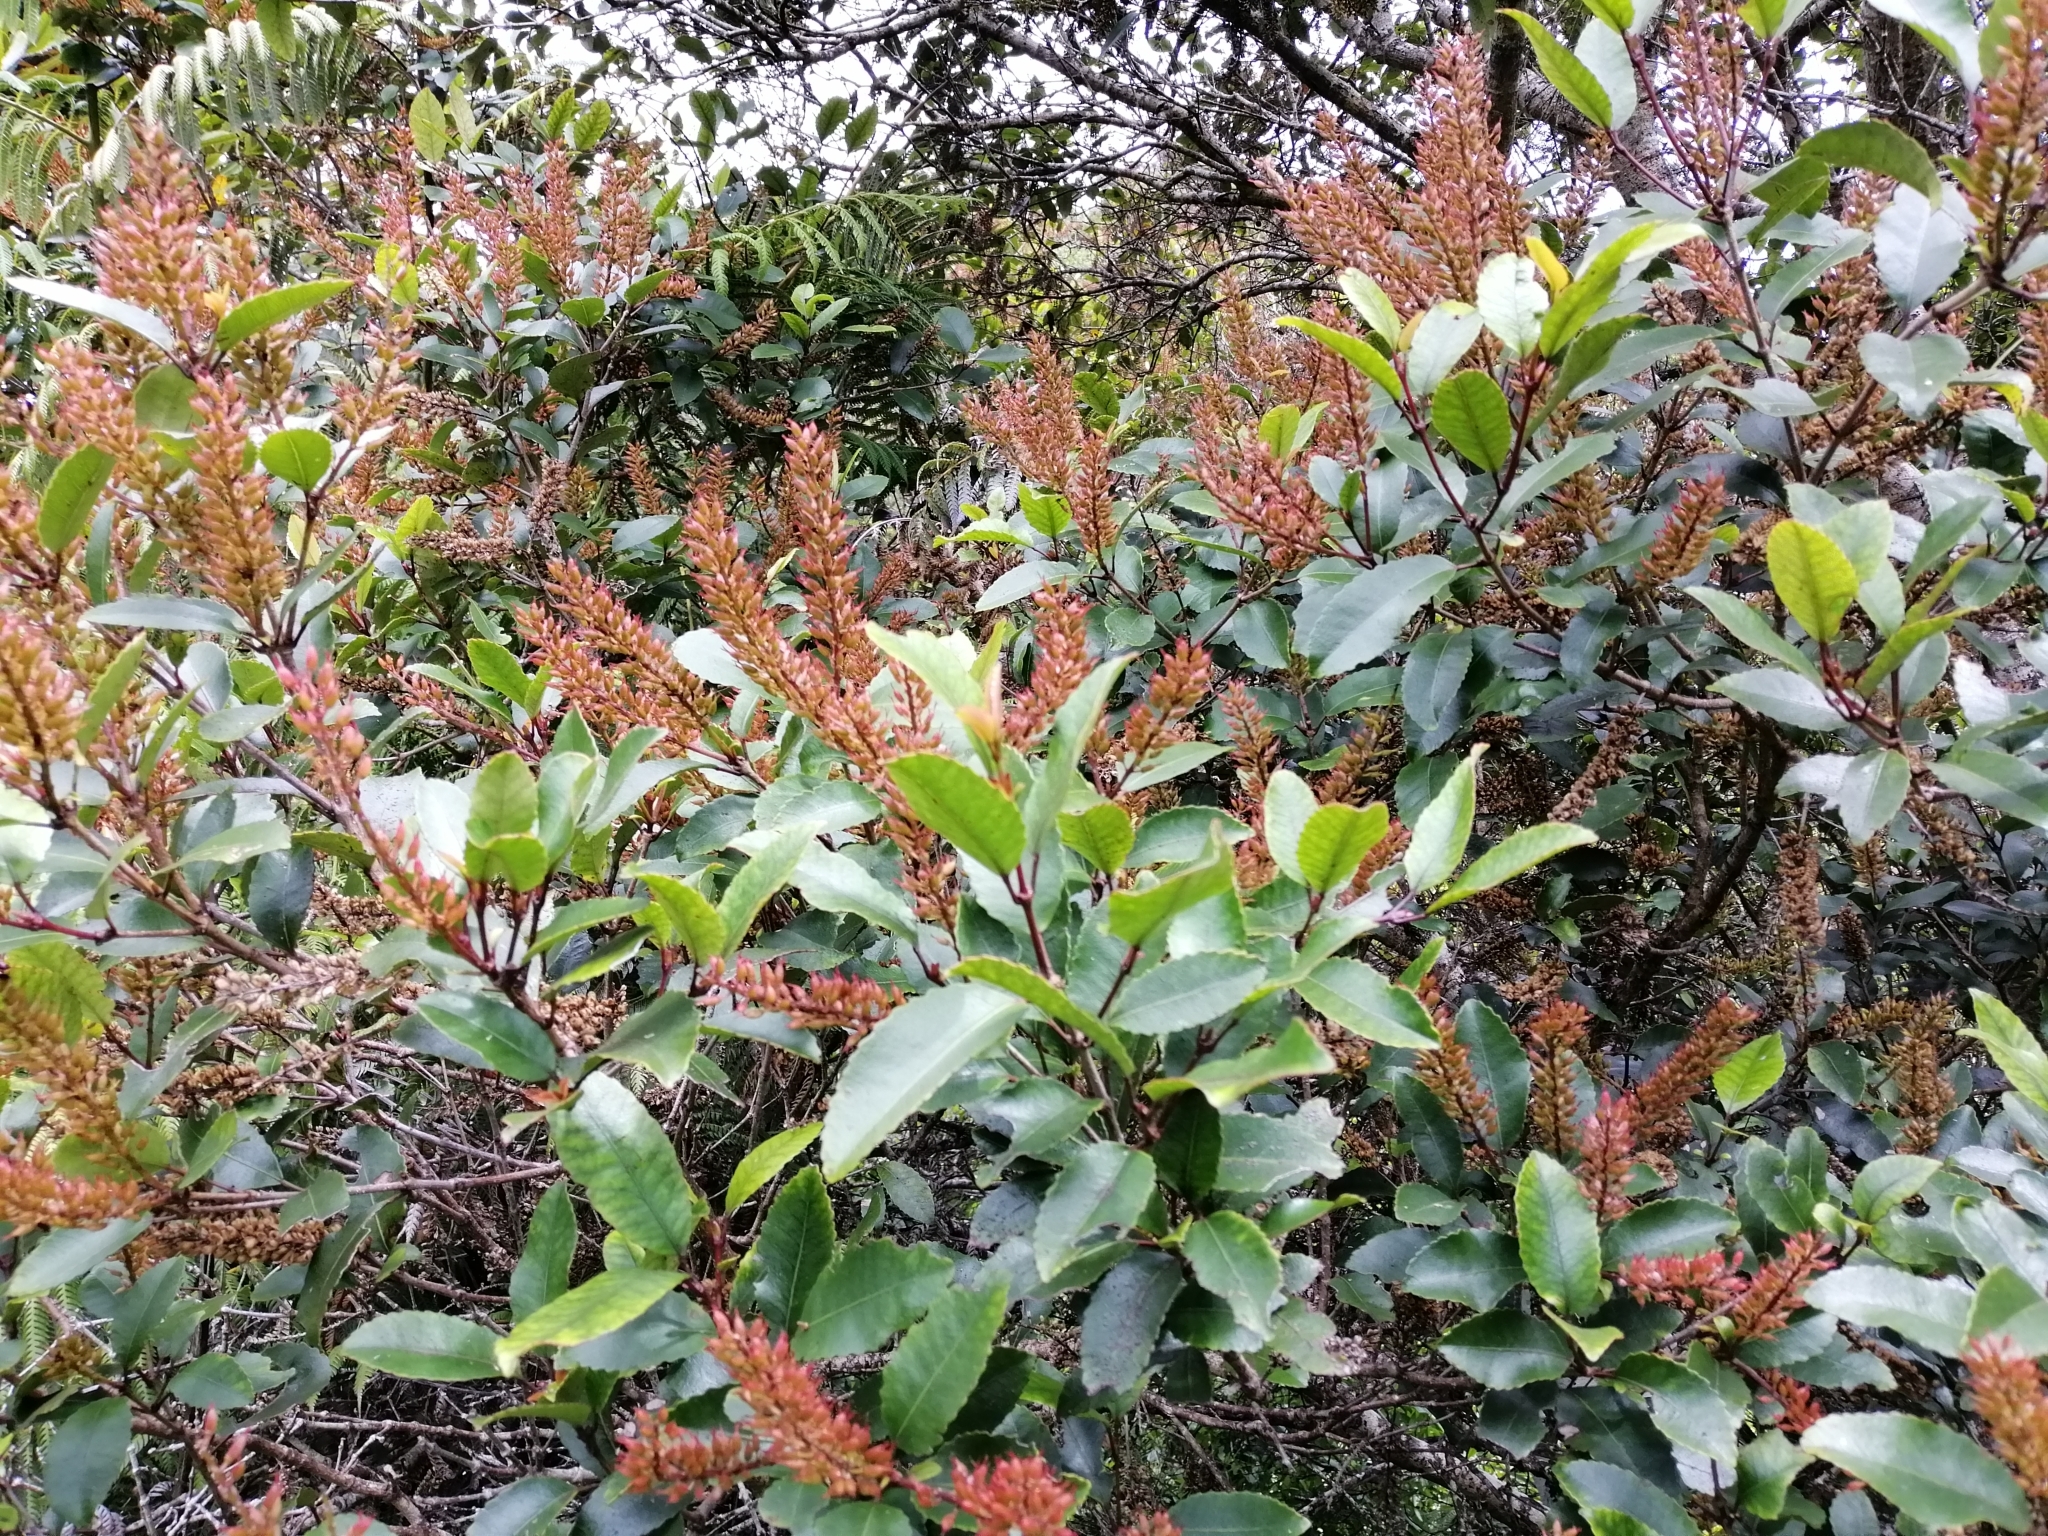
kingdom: Plantae
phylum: Tracheophyta
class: Magnoliopsida
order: Oxalidales
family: Cunoniaceae
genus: Pterophylla
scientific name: Pterophylla racemosa
